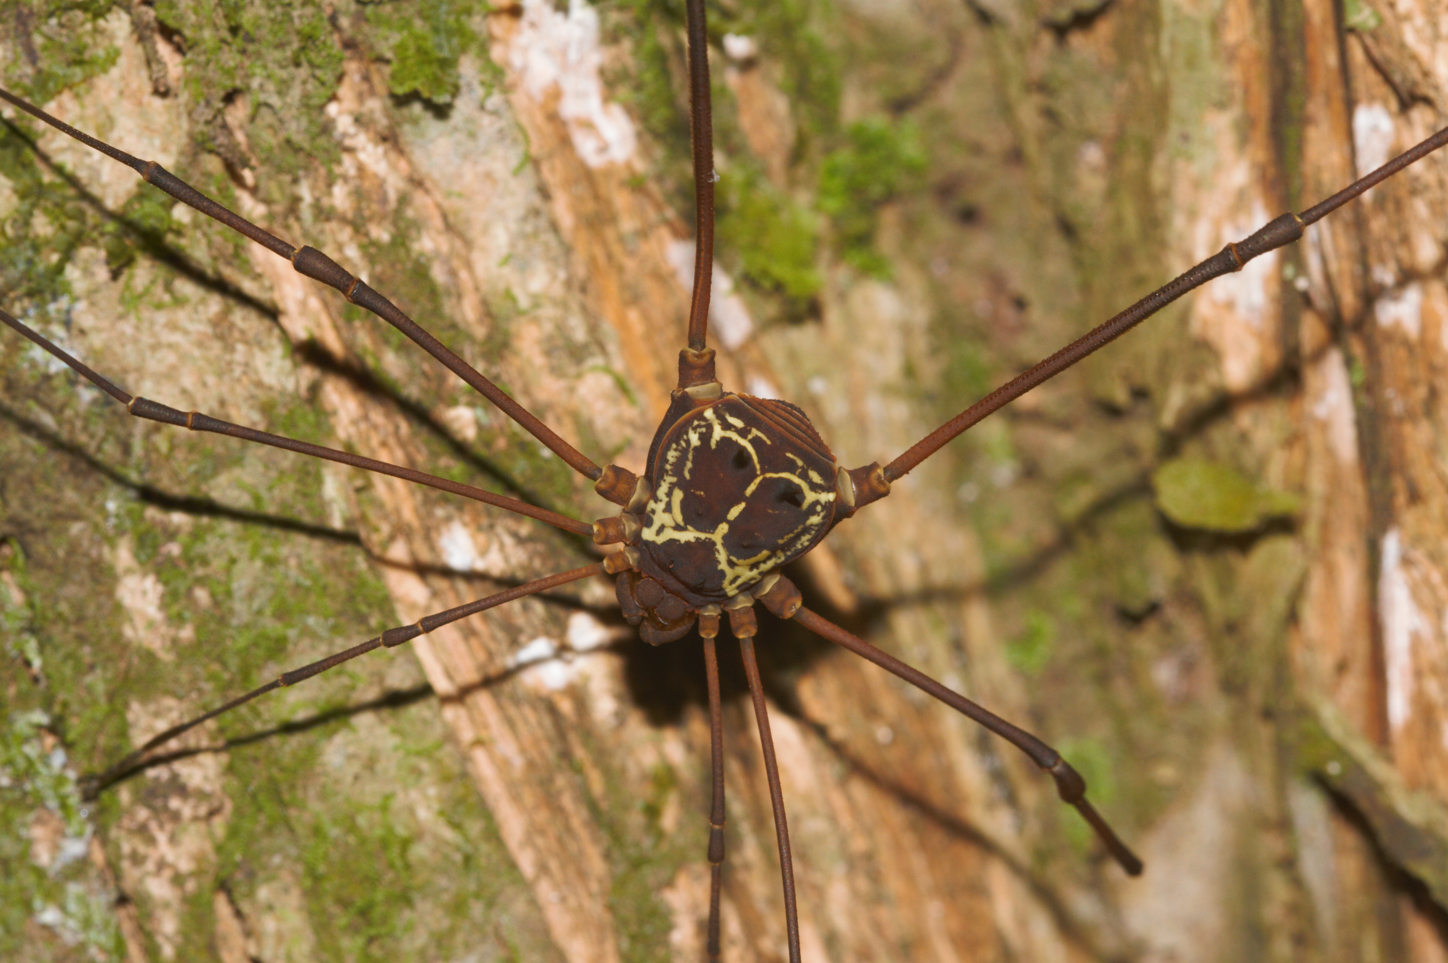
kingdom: Animalia
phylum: Arthropoda
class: Arachnida
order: Opiliones
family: Cosmetidae
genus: Paecilaema
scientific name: Paecilaema curvipes
